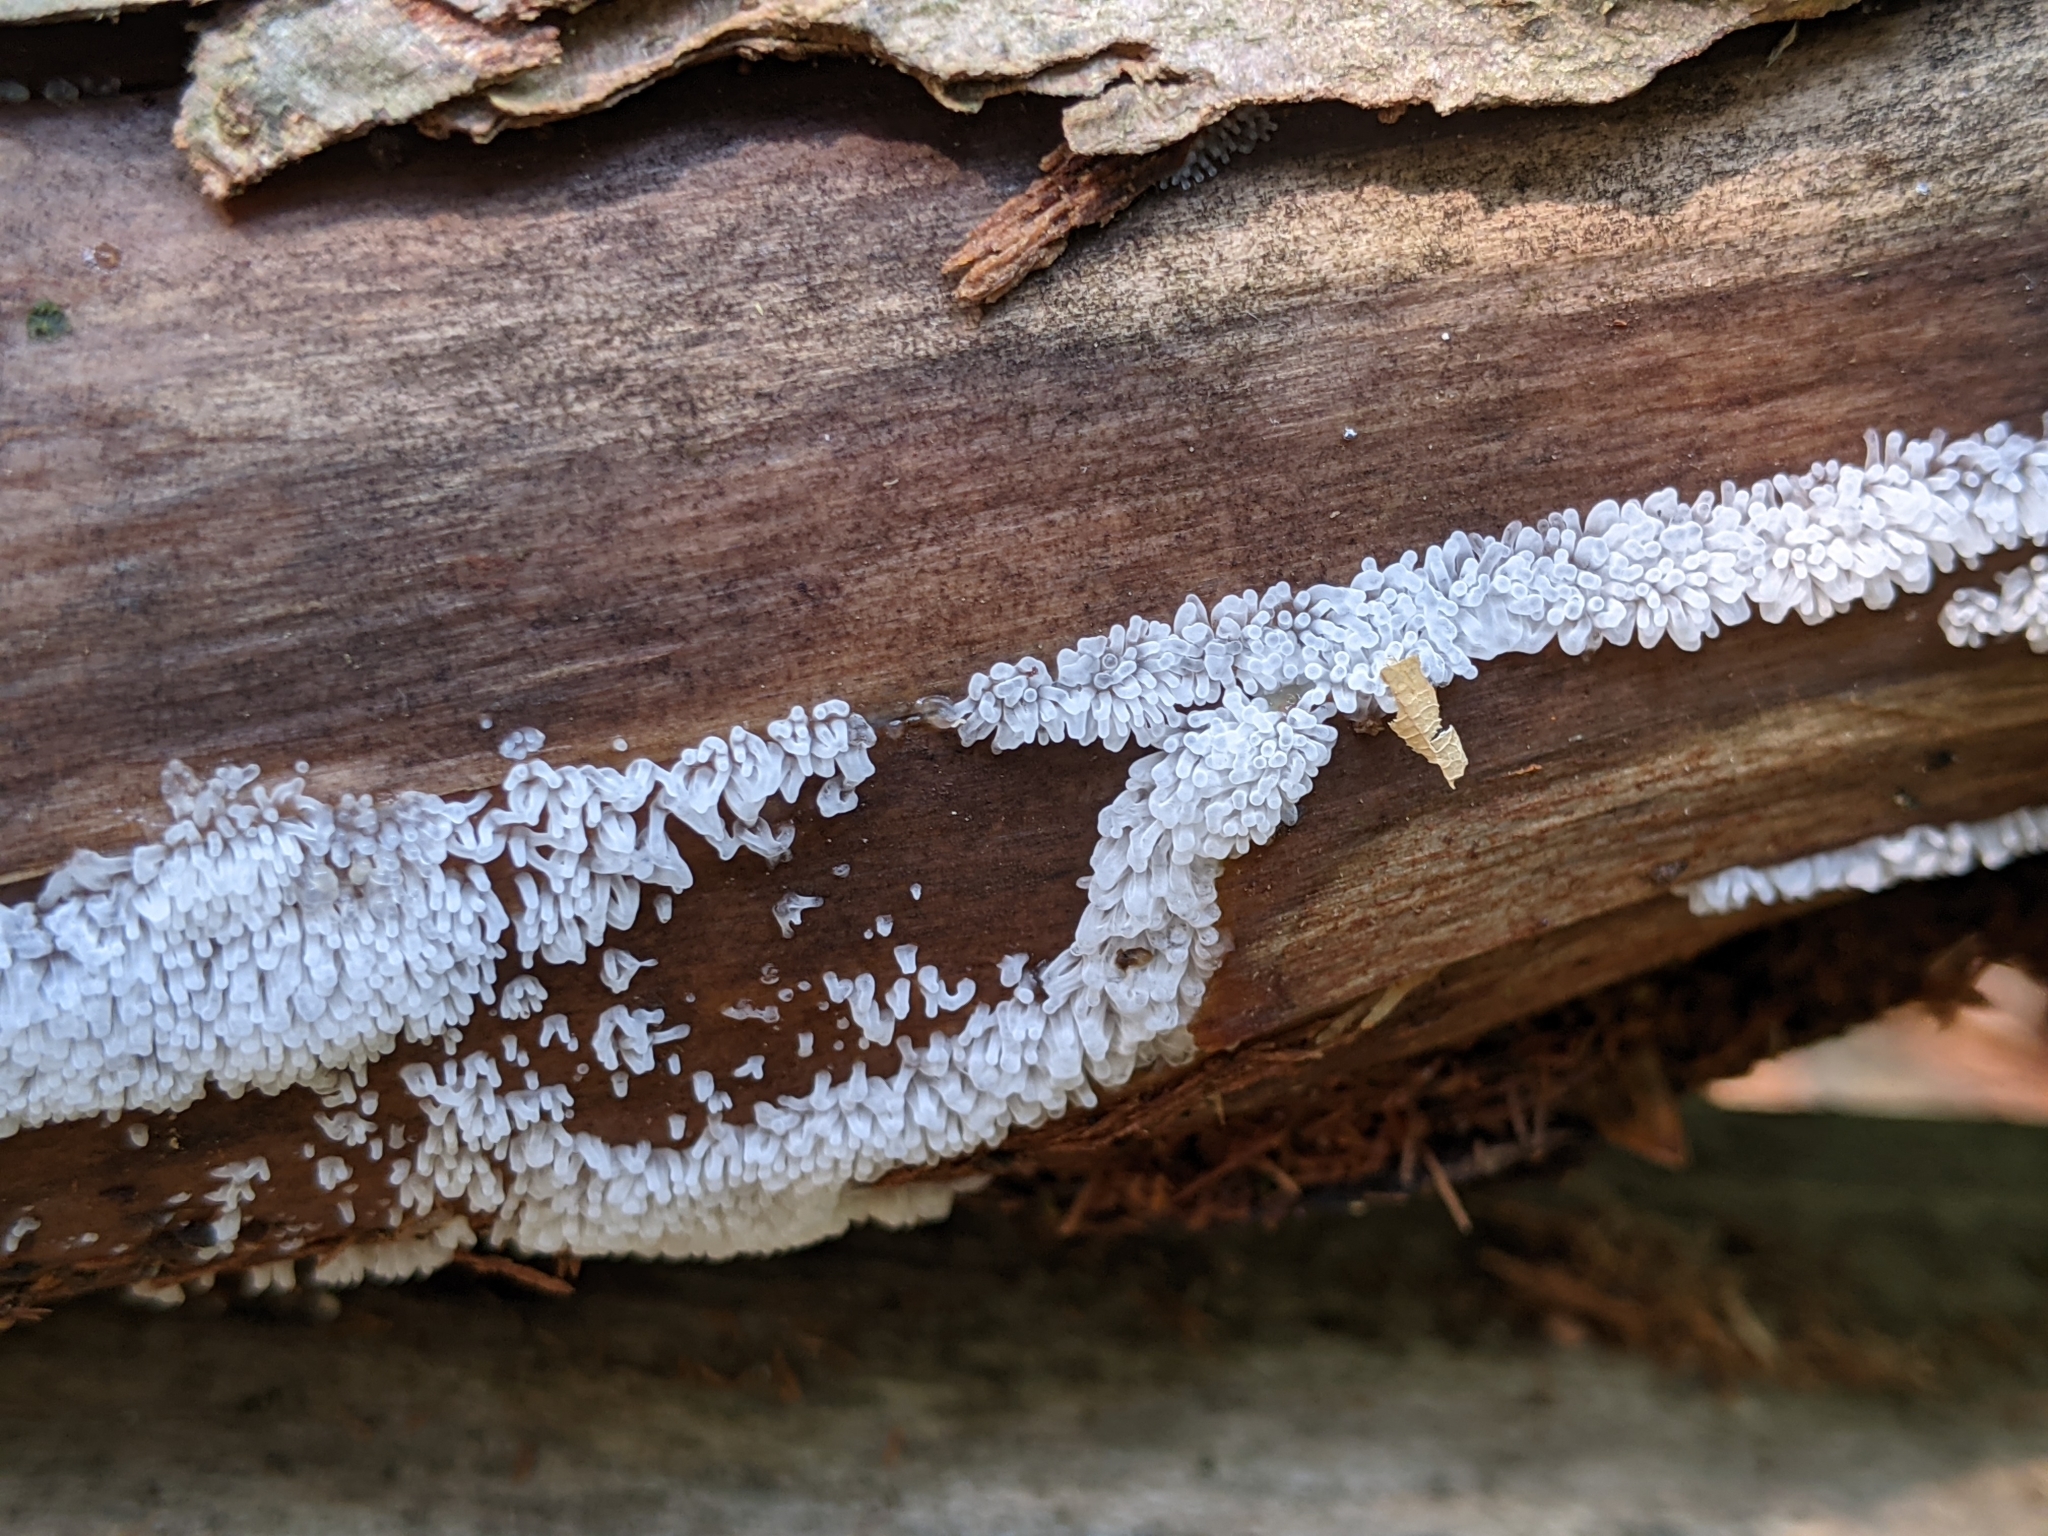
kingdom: Protozoa
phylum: Mycetozoa
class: Protosteliomycetes
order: Ceratiomyxales
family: Ceratiomyxaceae
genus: Ceratiomyxa
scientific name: Ceratiomyxa fruticulosa
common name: Honeycomb coral slime mold
